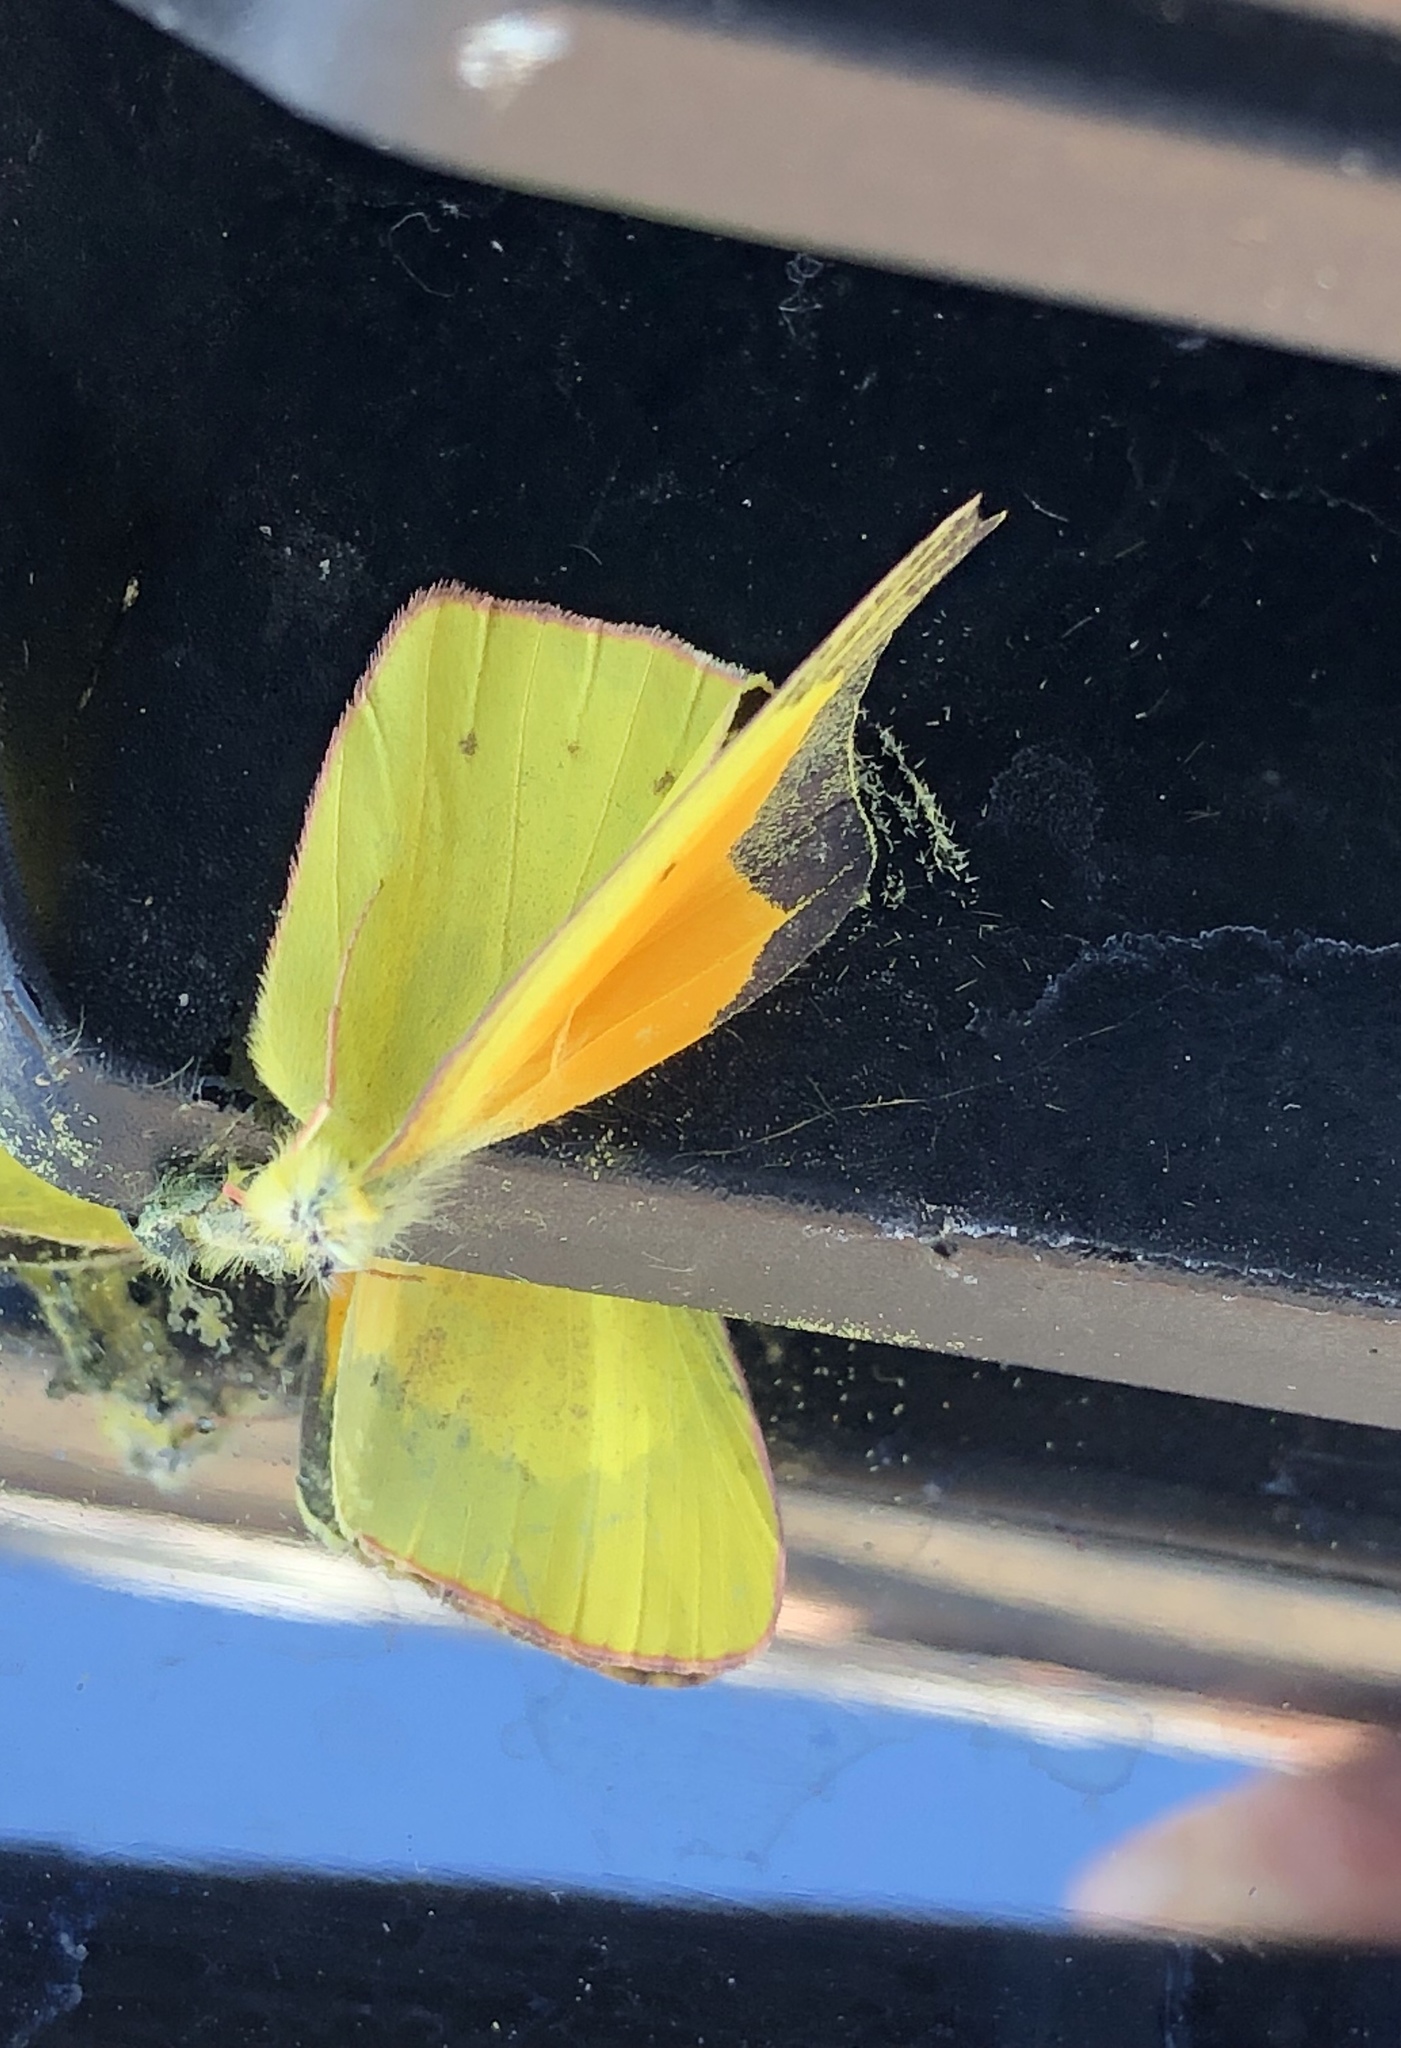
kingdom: Animalia
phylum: Arthropoda
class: Insecta
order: Lepidoptera
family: Pieridae
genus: Colias
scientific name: Colias eurytheme
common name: Alfalfa butterfly
